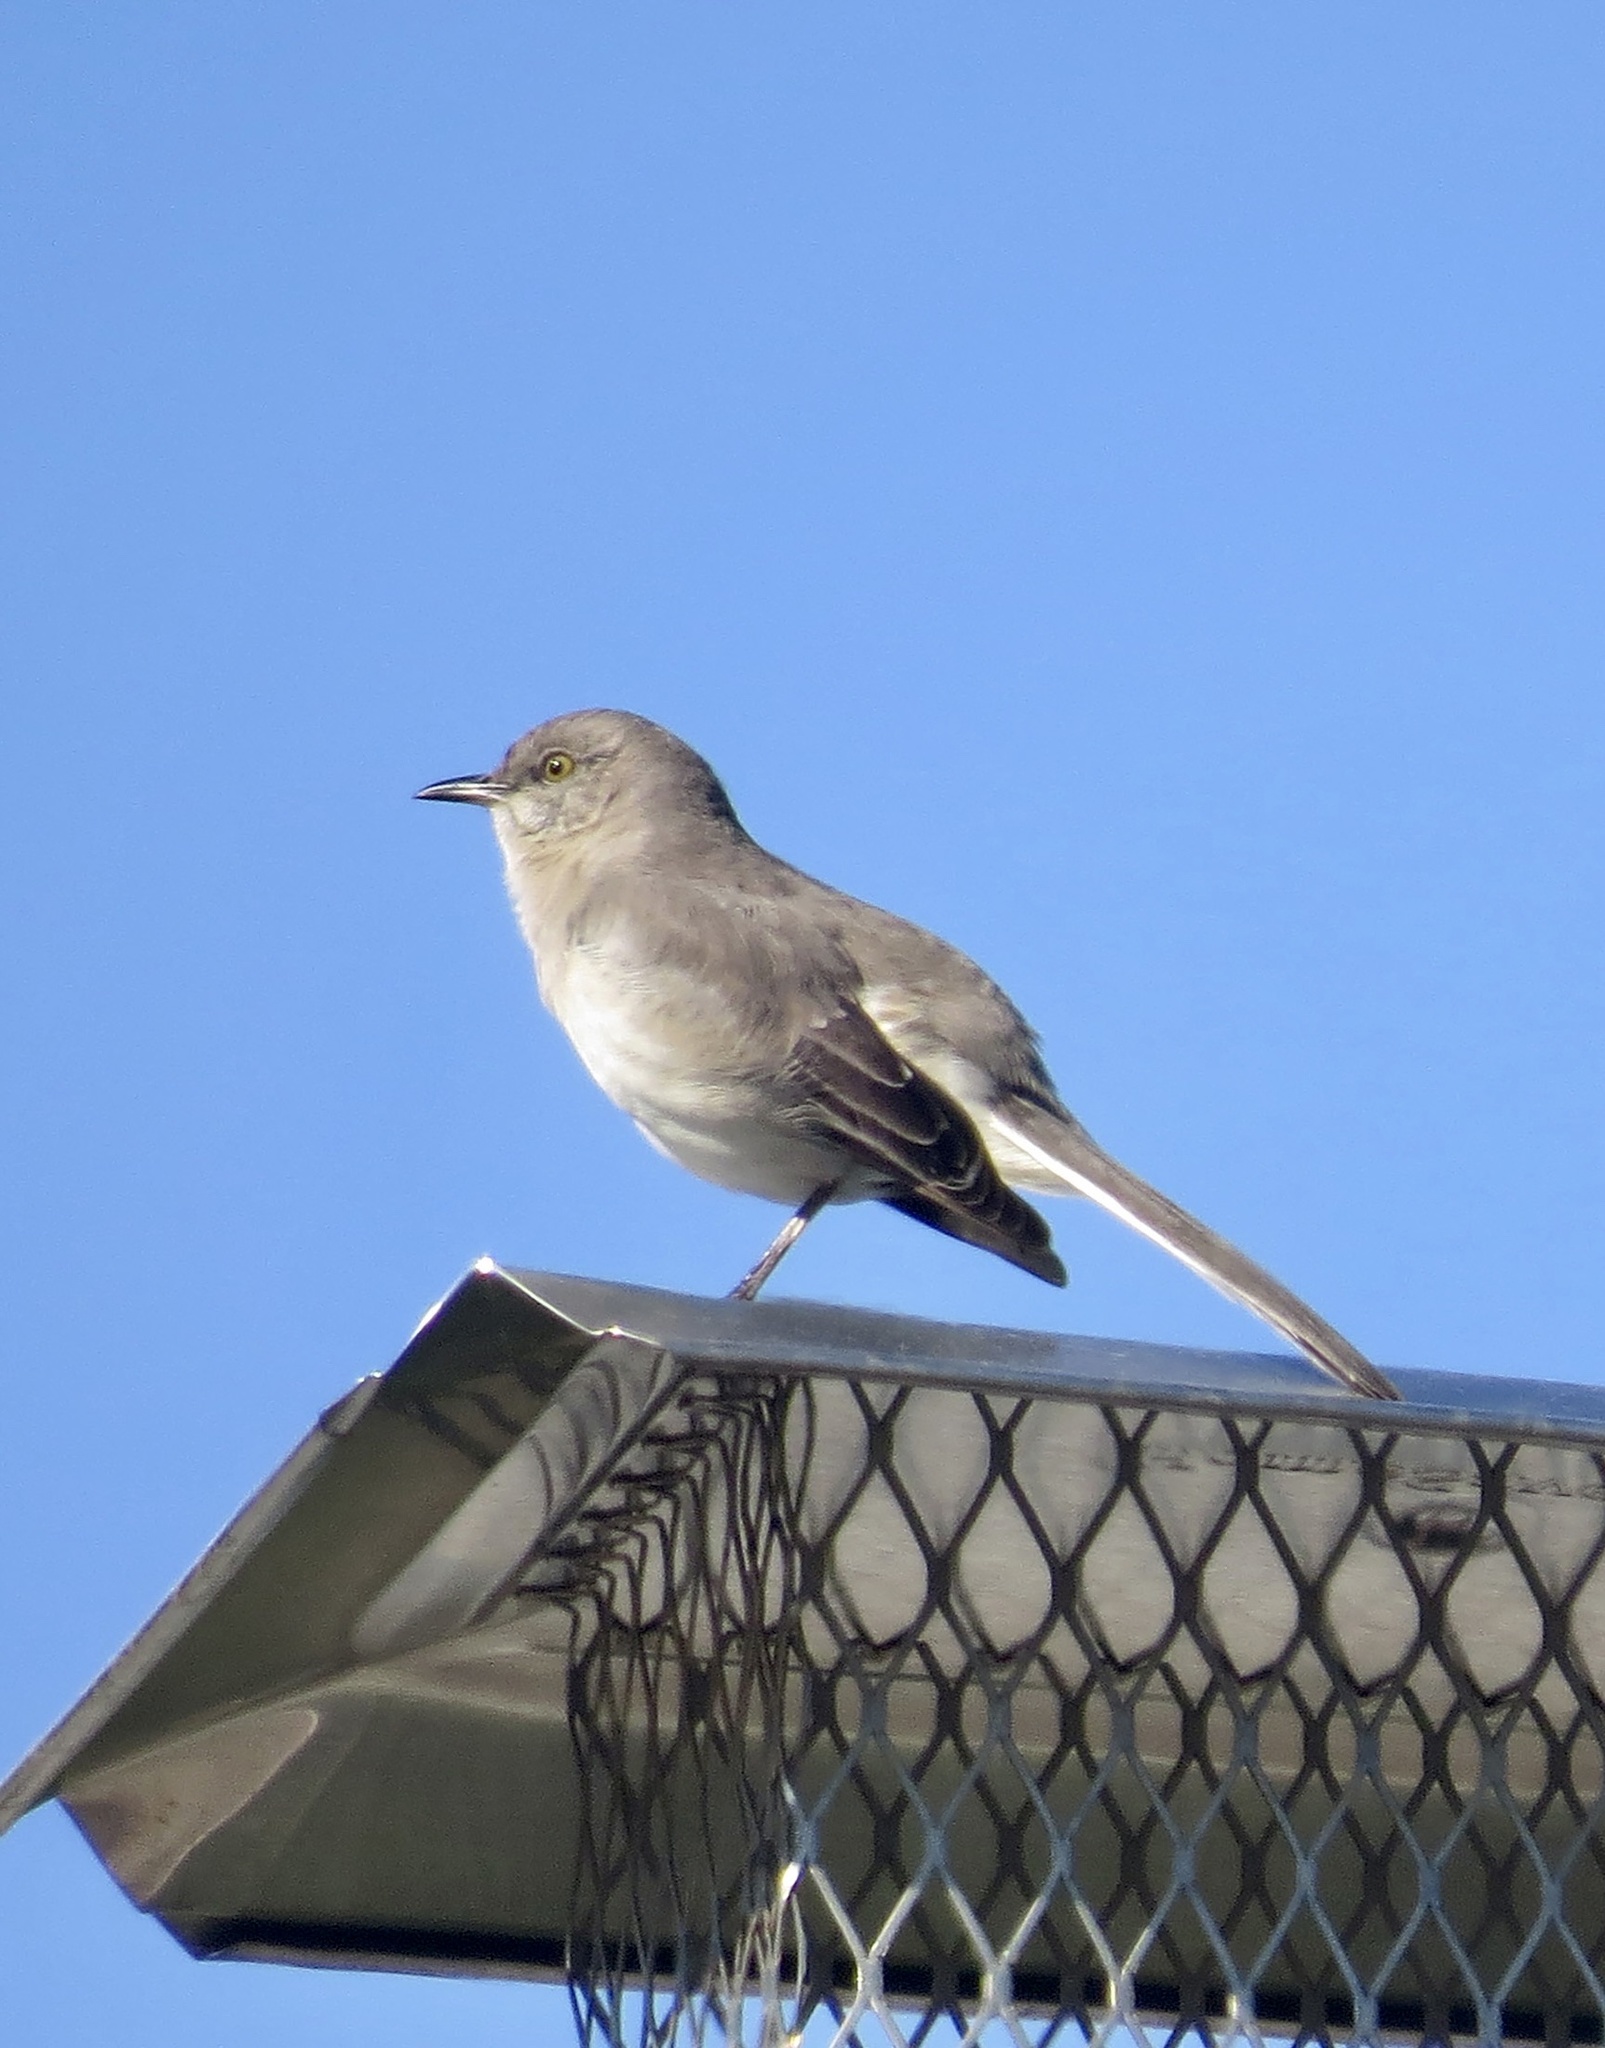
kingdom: Animalia
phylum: Chordata
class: Aves
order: Passeriformes
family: Mimidae
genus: Mimus
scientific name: Mimus polyglottos
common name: Northern mockingbird
